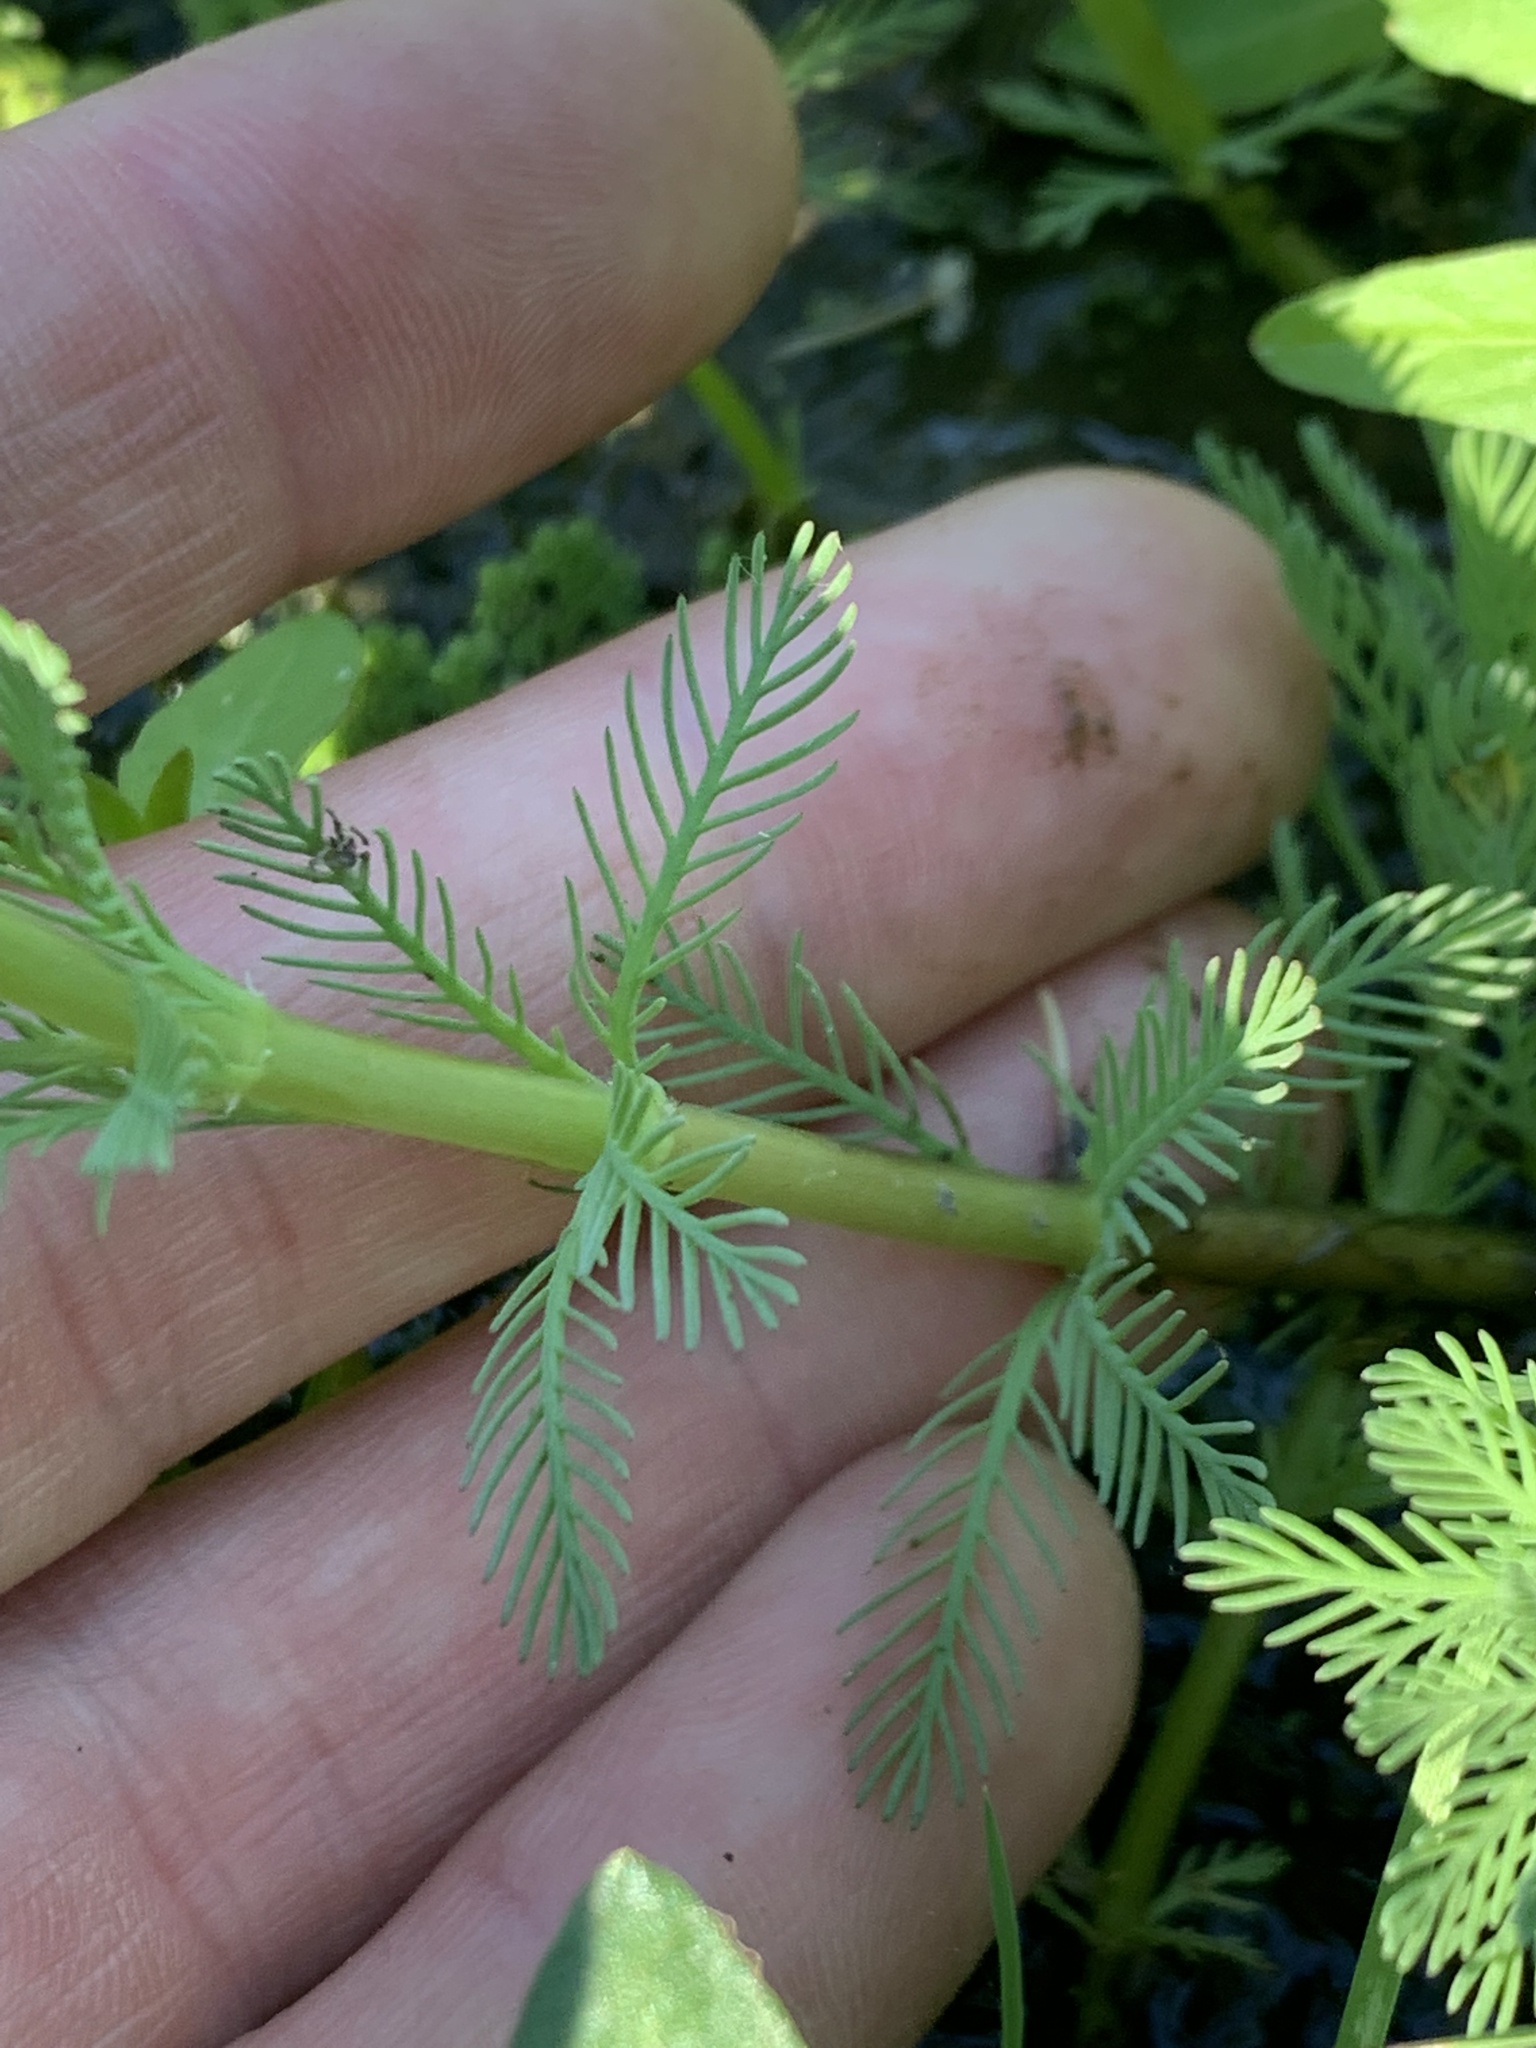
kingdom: Plantae
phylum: Tracheophyta
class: Magnoliopsida
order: Saxifragales
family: Haloragaceae
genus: Myriophyllum
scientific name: Myriophyllum aquaticum
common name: Parrot's feather
